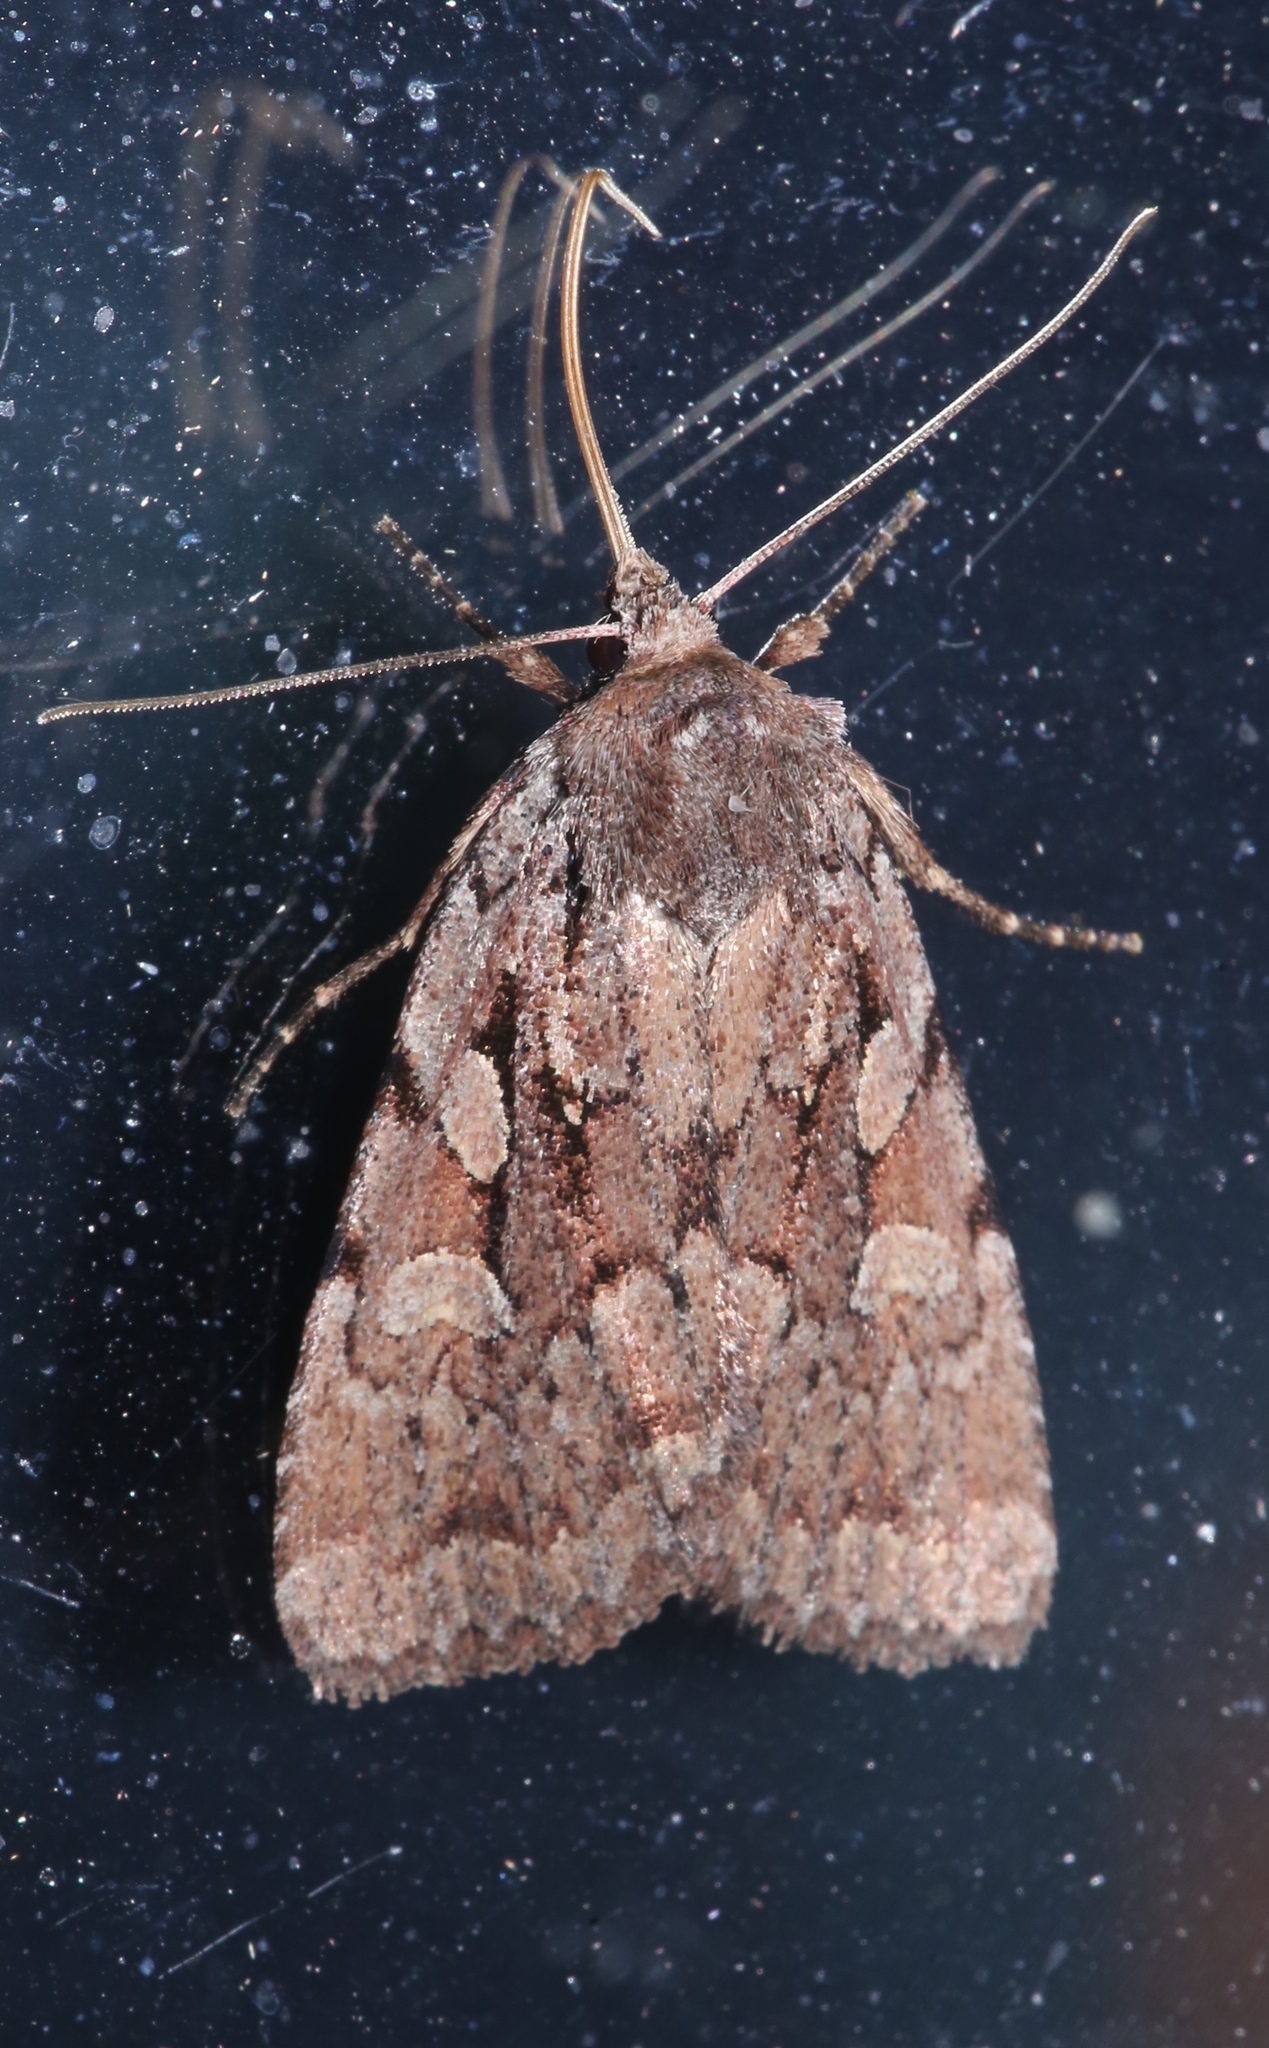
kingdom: Animalia
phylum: Arthropoda
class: Insecta
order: Lepidoptera
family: Noctuidae
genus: Xestia
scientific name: Xestia praevia
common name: Praevia dart
